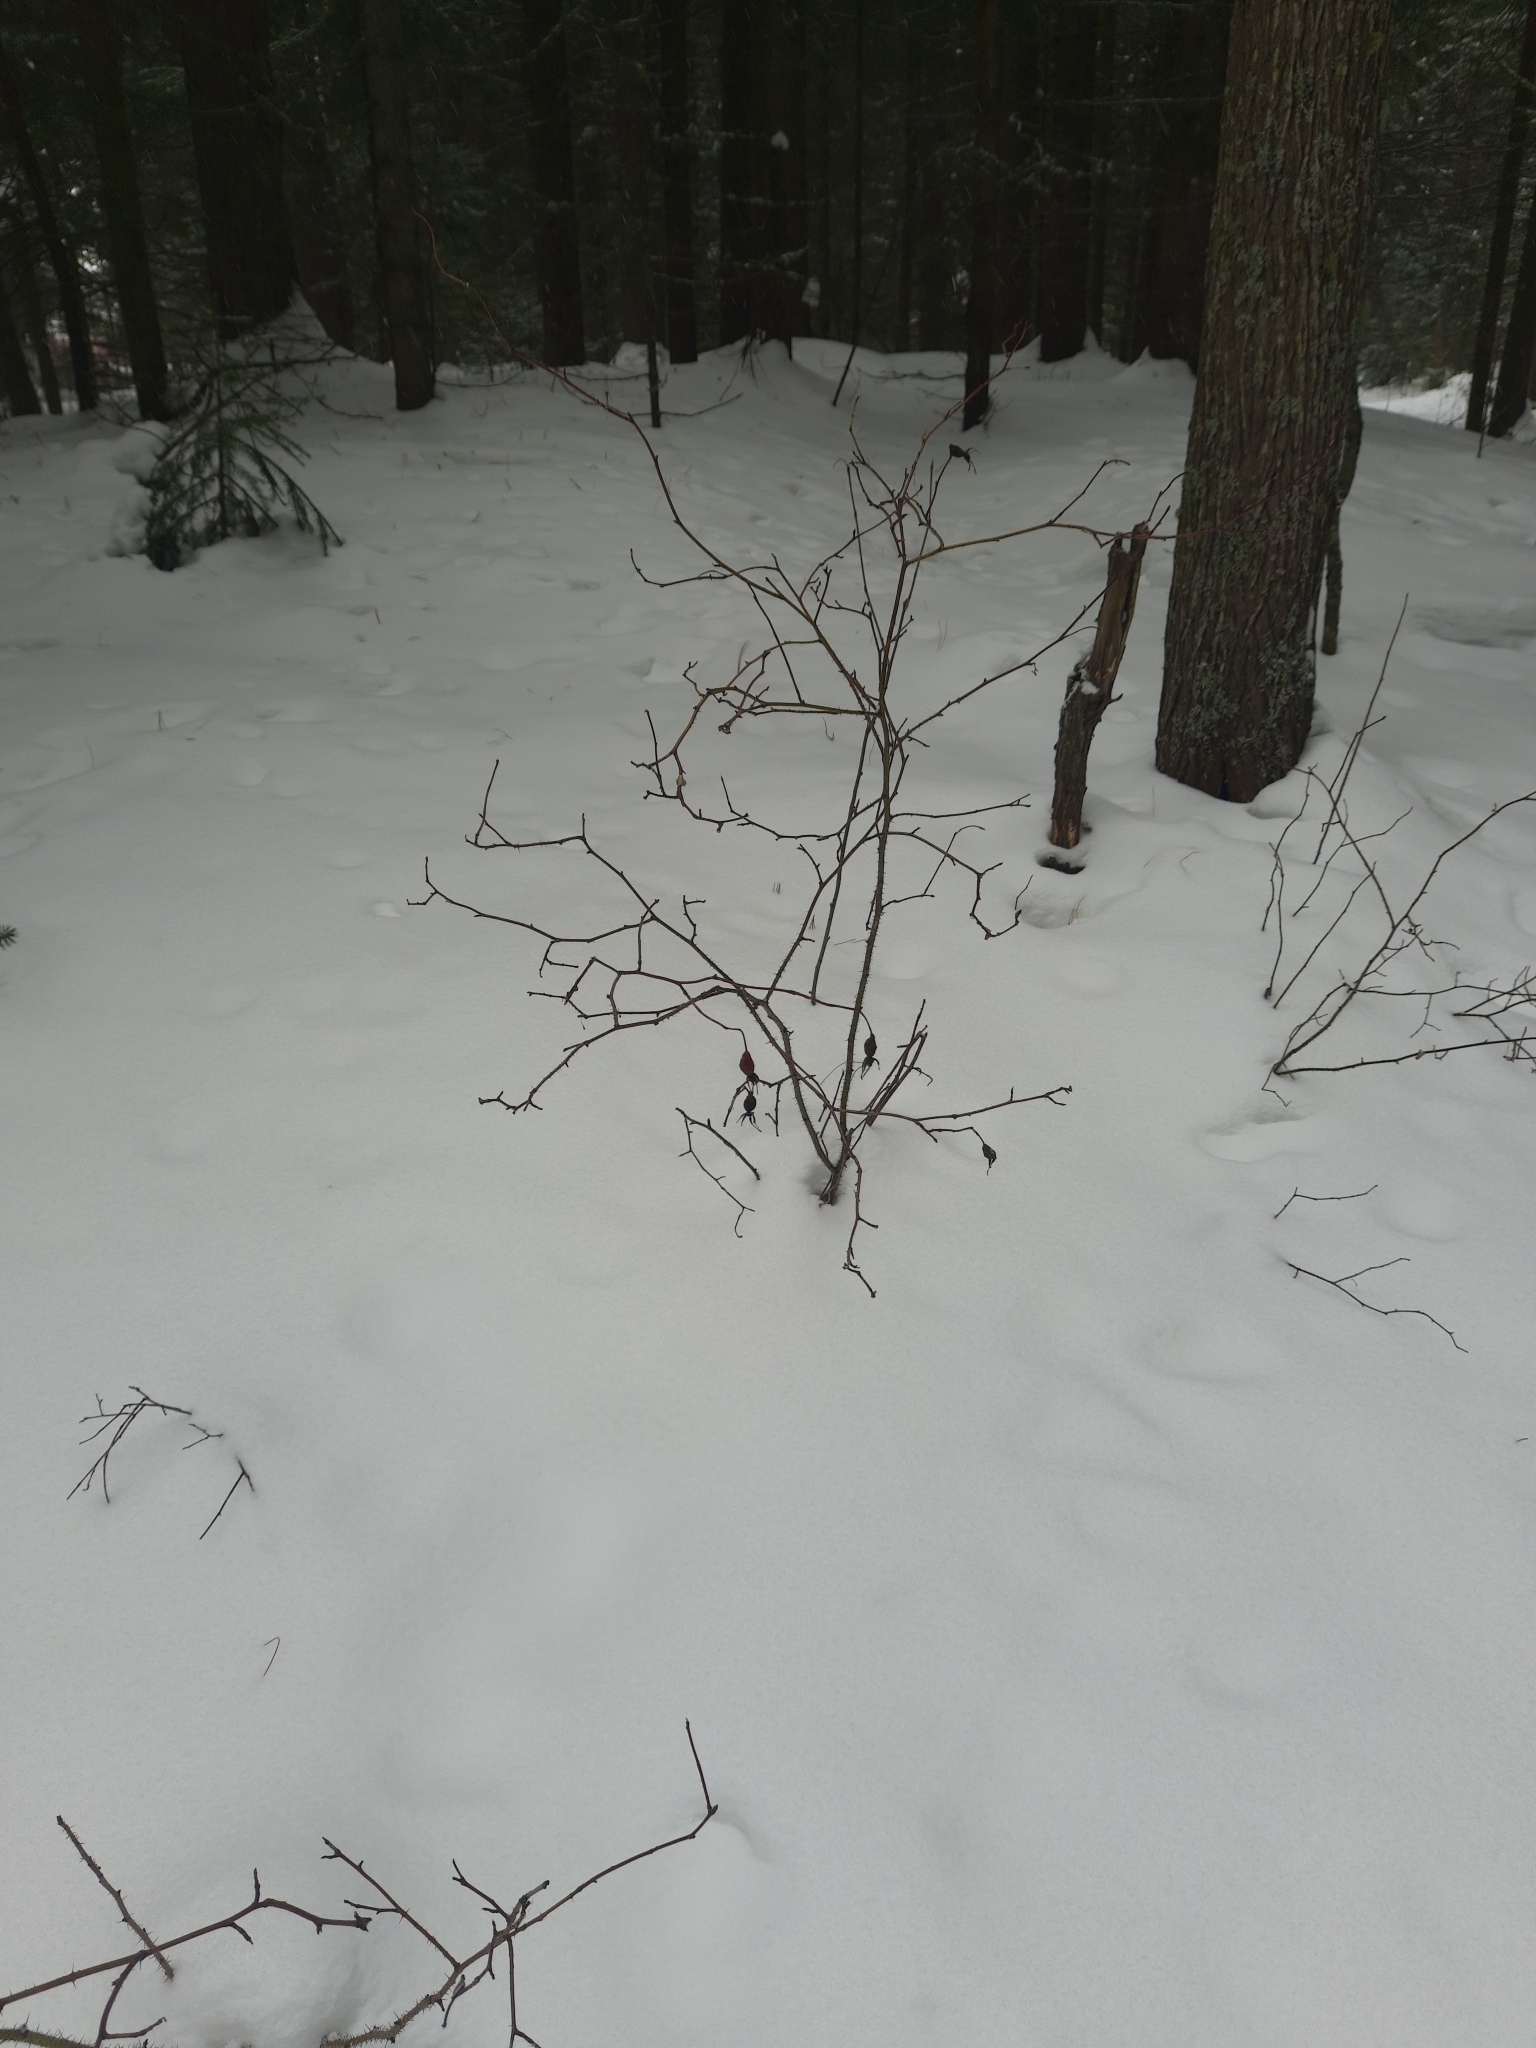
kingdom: Plantae
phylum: Tracheophyta
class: Magnoliopsida
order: Rosales
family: Rosaceae
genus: Rosa
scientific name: Rosa acicularis
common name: Prickly rose
